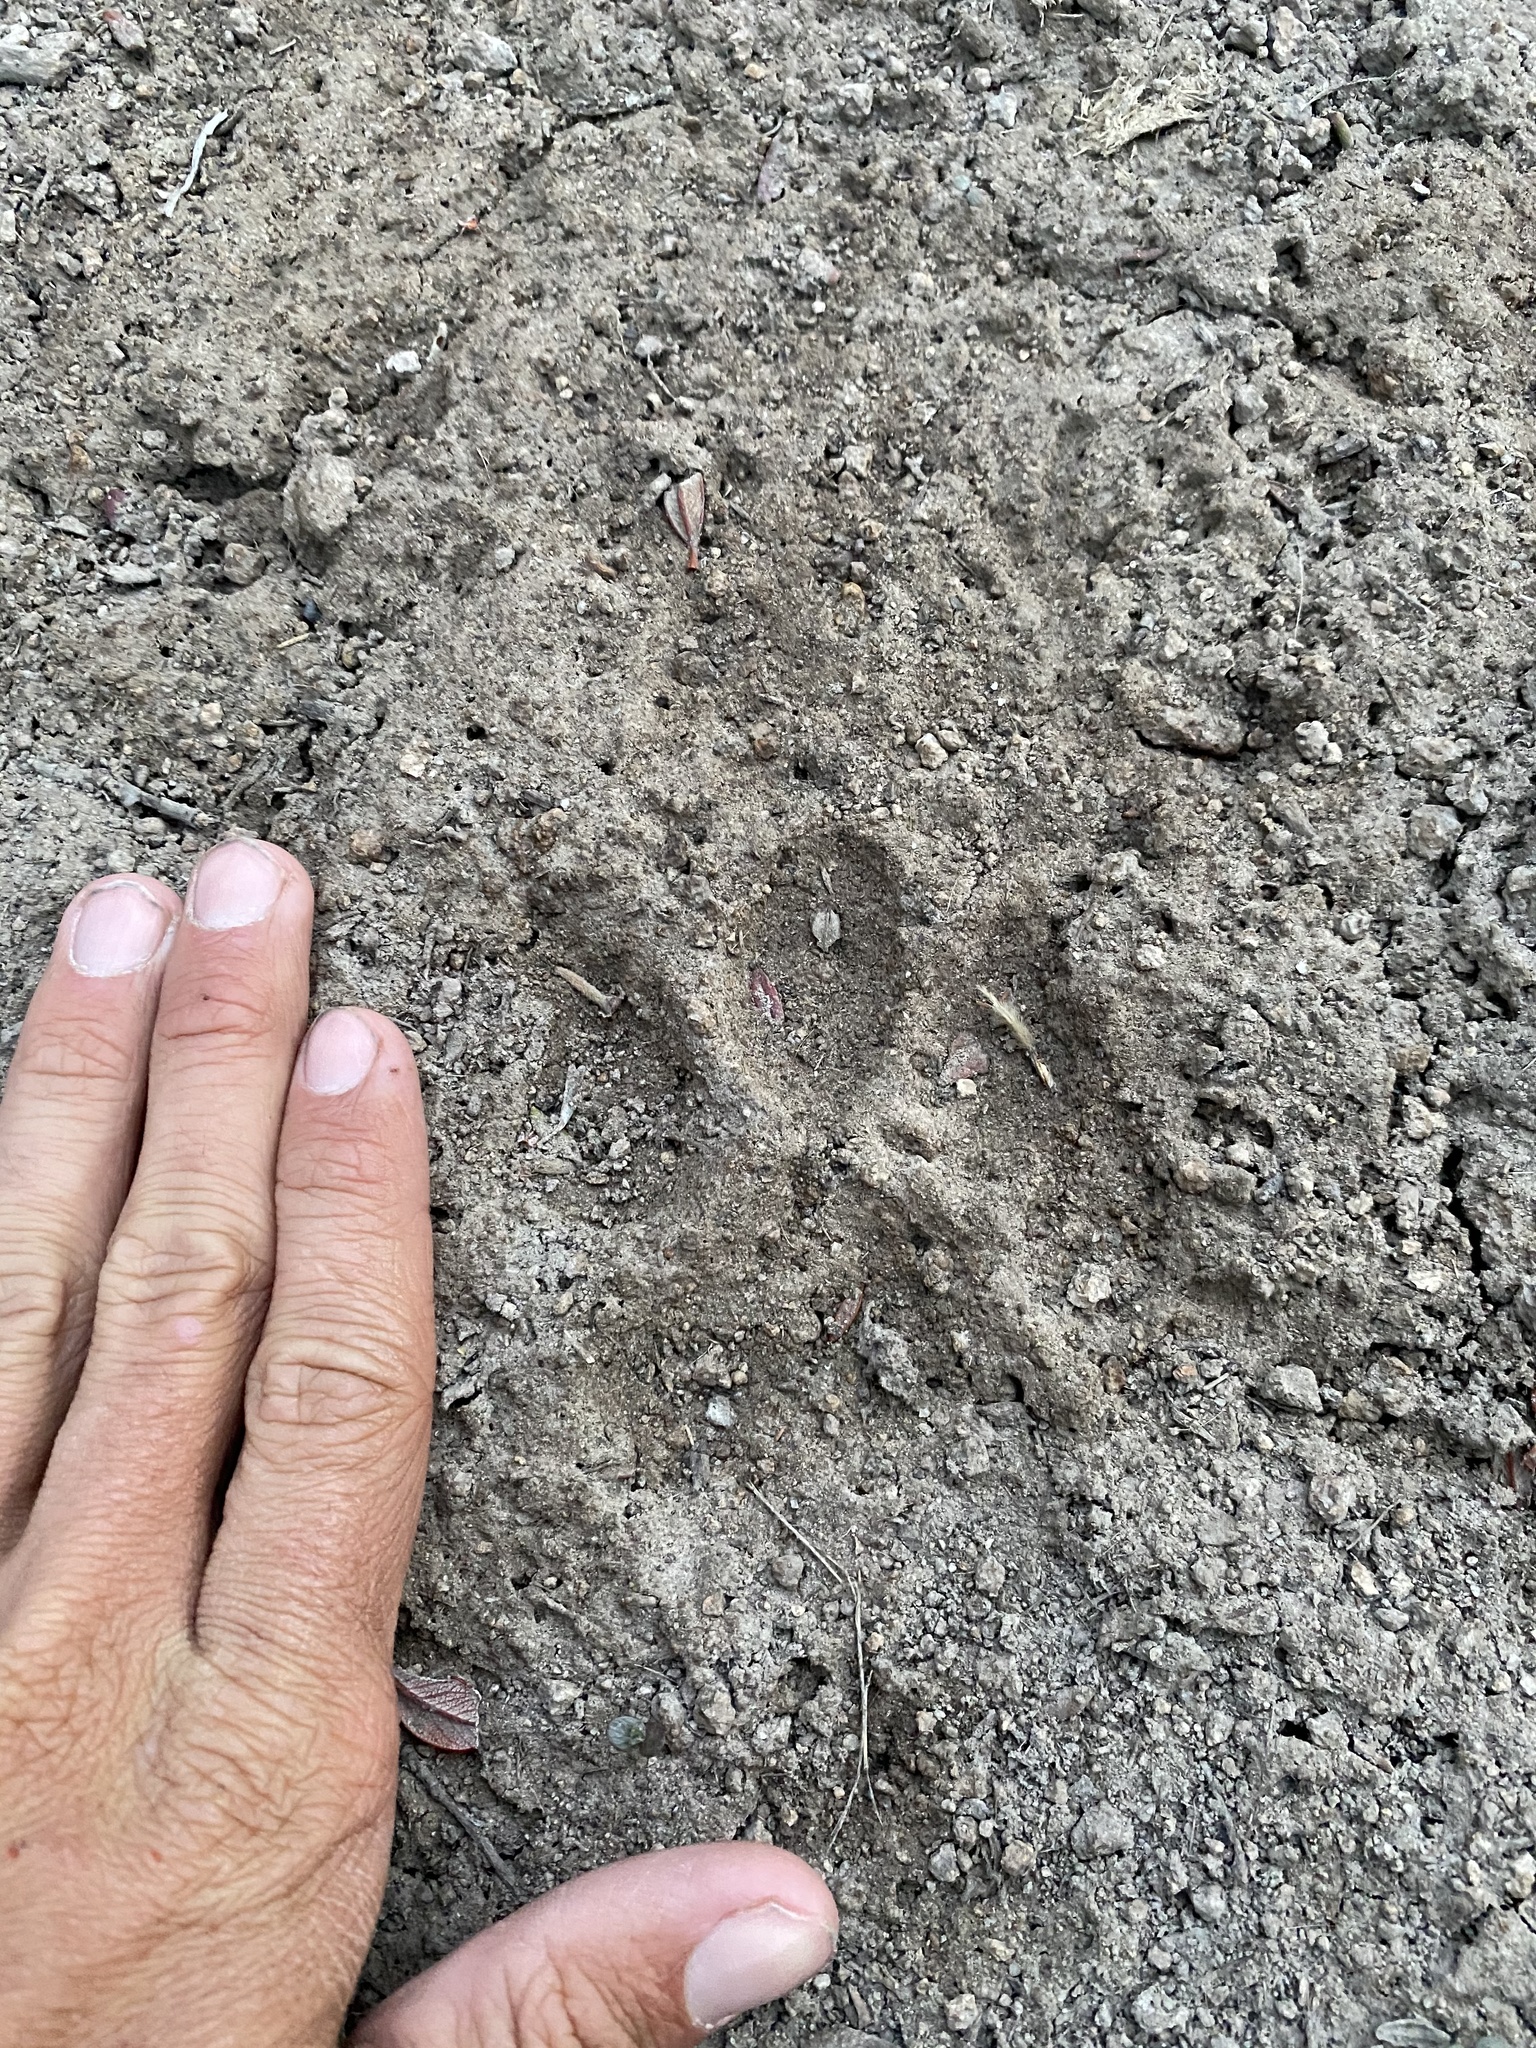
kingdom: Animalia
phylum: Chordata
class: Mammalia
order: Carnivora
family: Felidae
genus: Puma
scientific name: Puma concolor
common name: Puma
